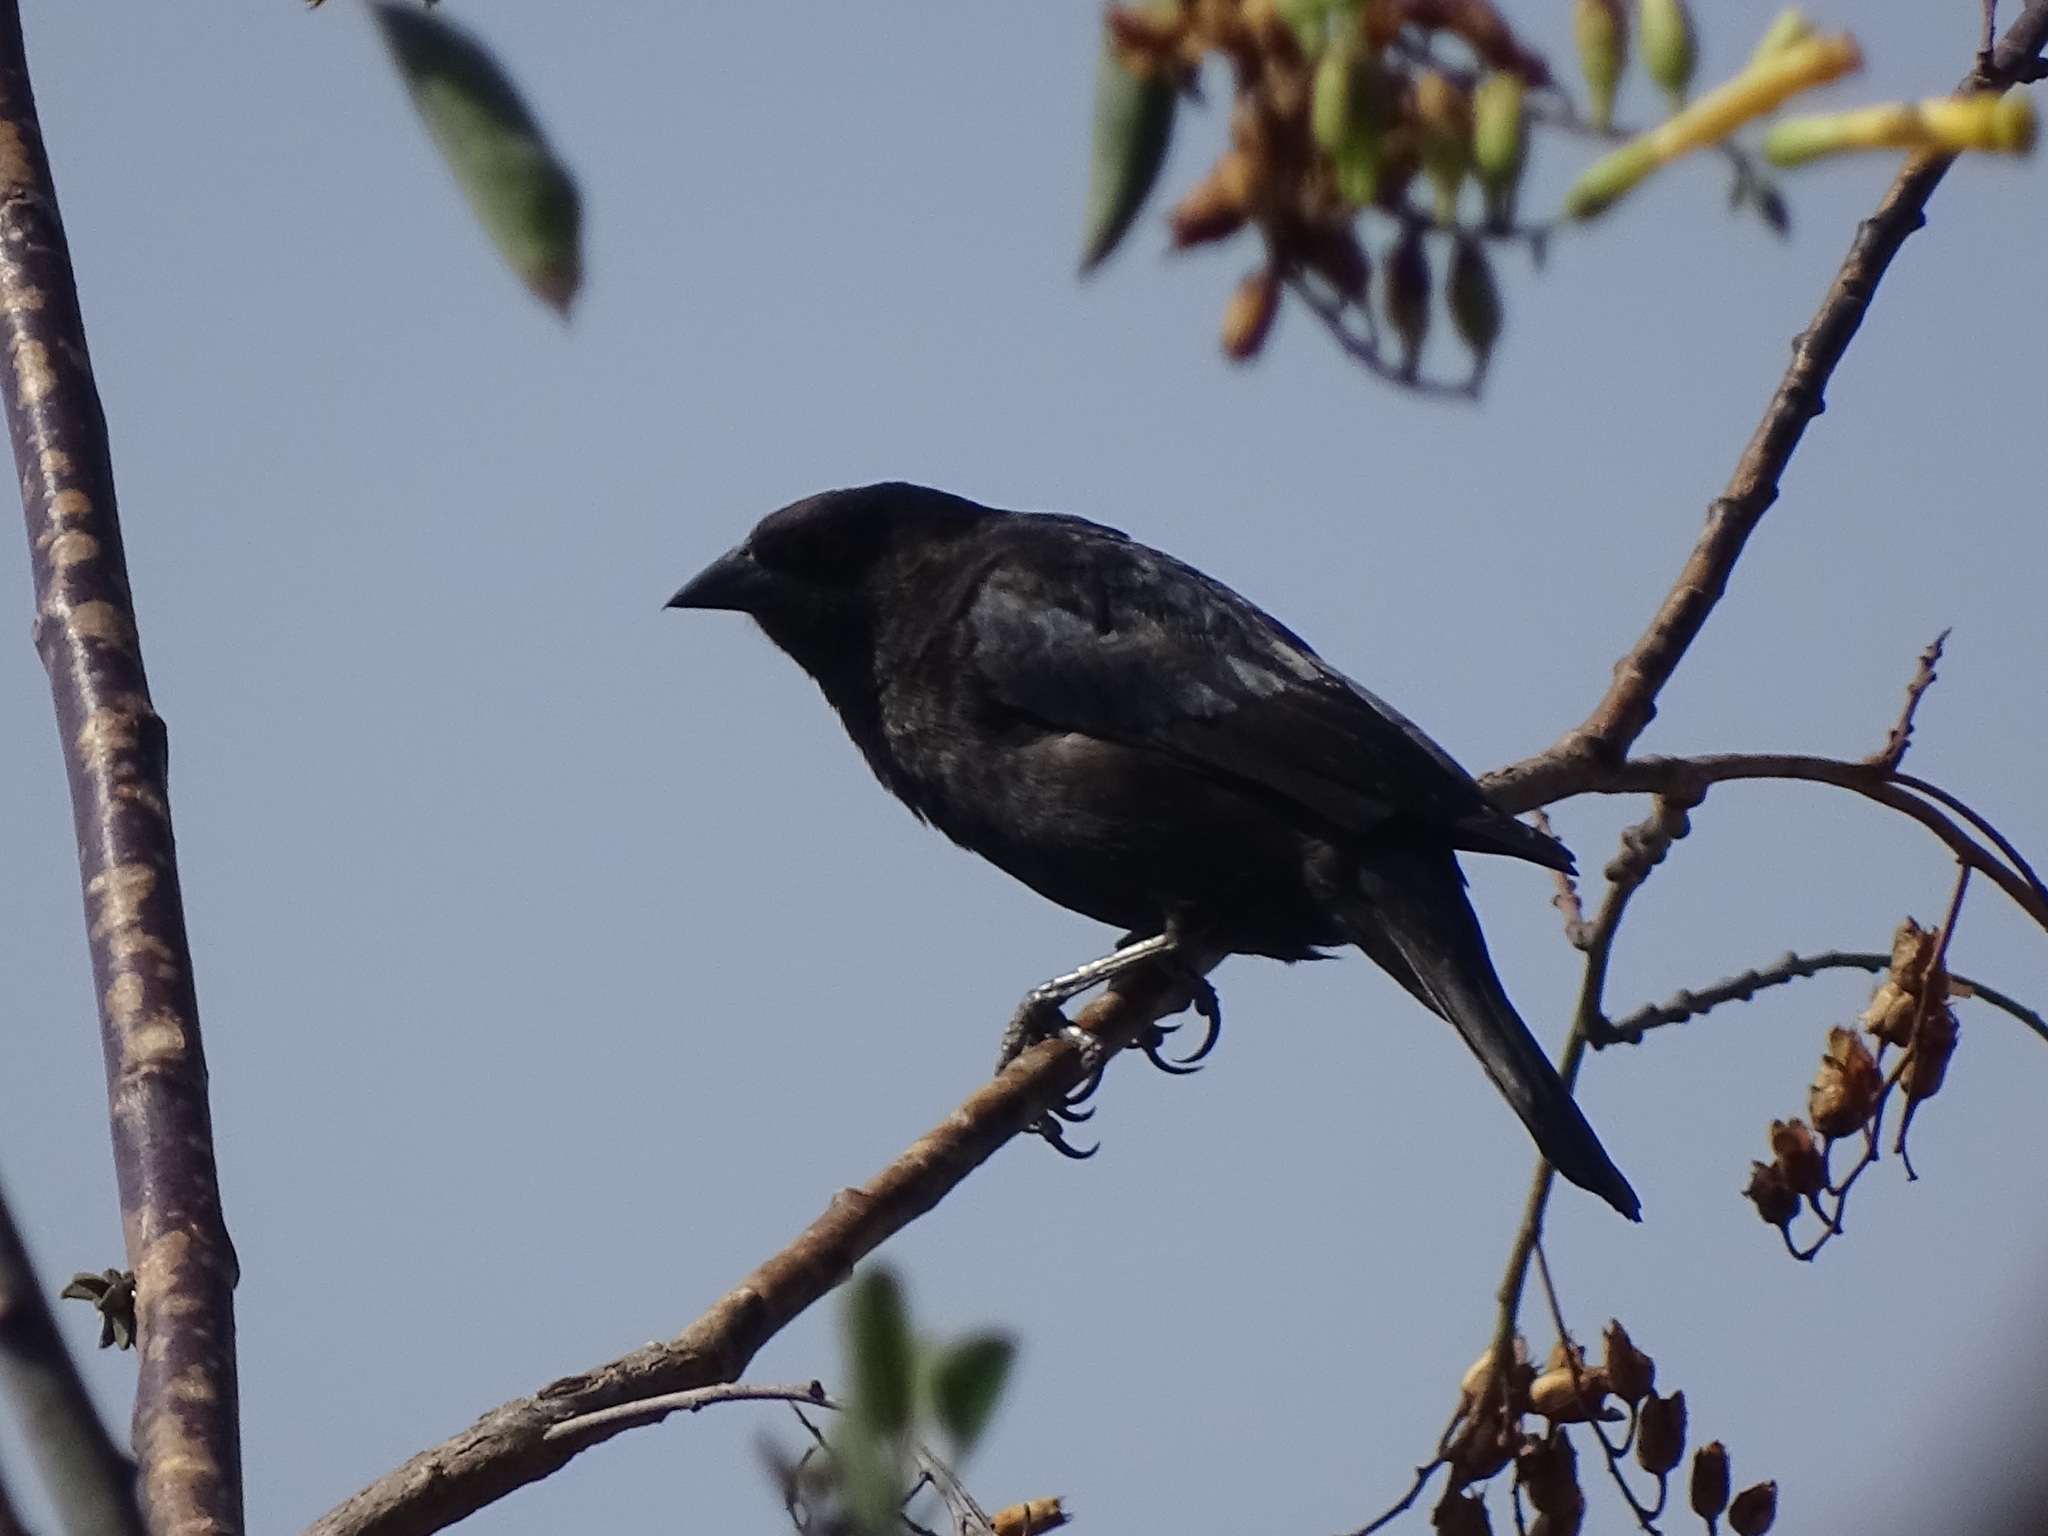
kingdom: Animalia
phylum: Chordata
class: Aves
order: Passeriformes
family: Icteridae
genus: Molothrus
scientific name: Molothrus aeneus
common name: Bronzed cowbird
